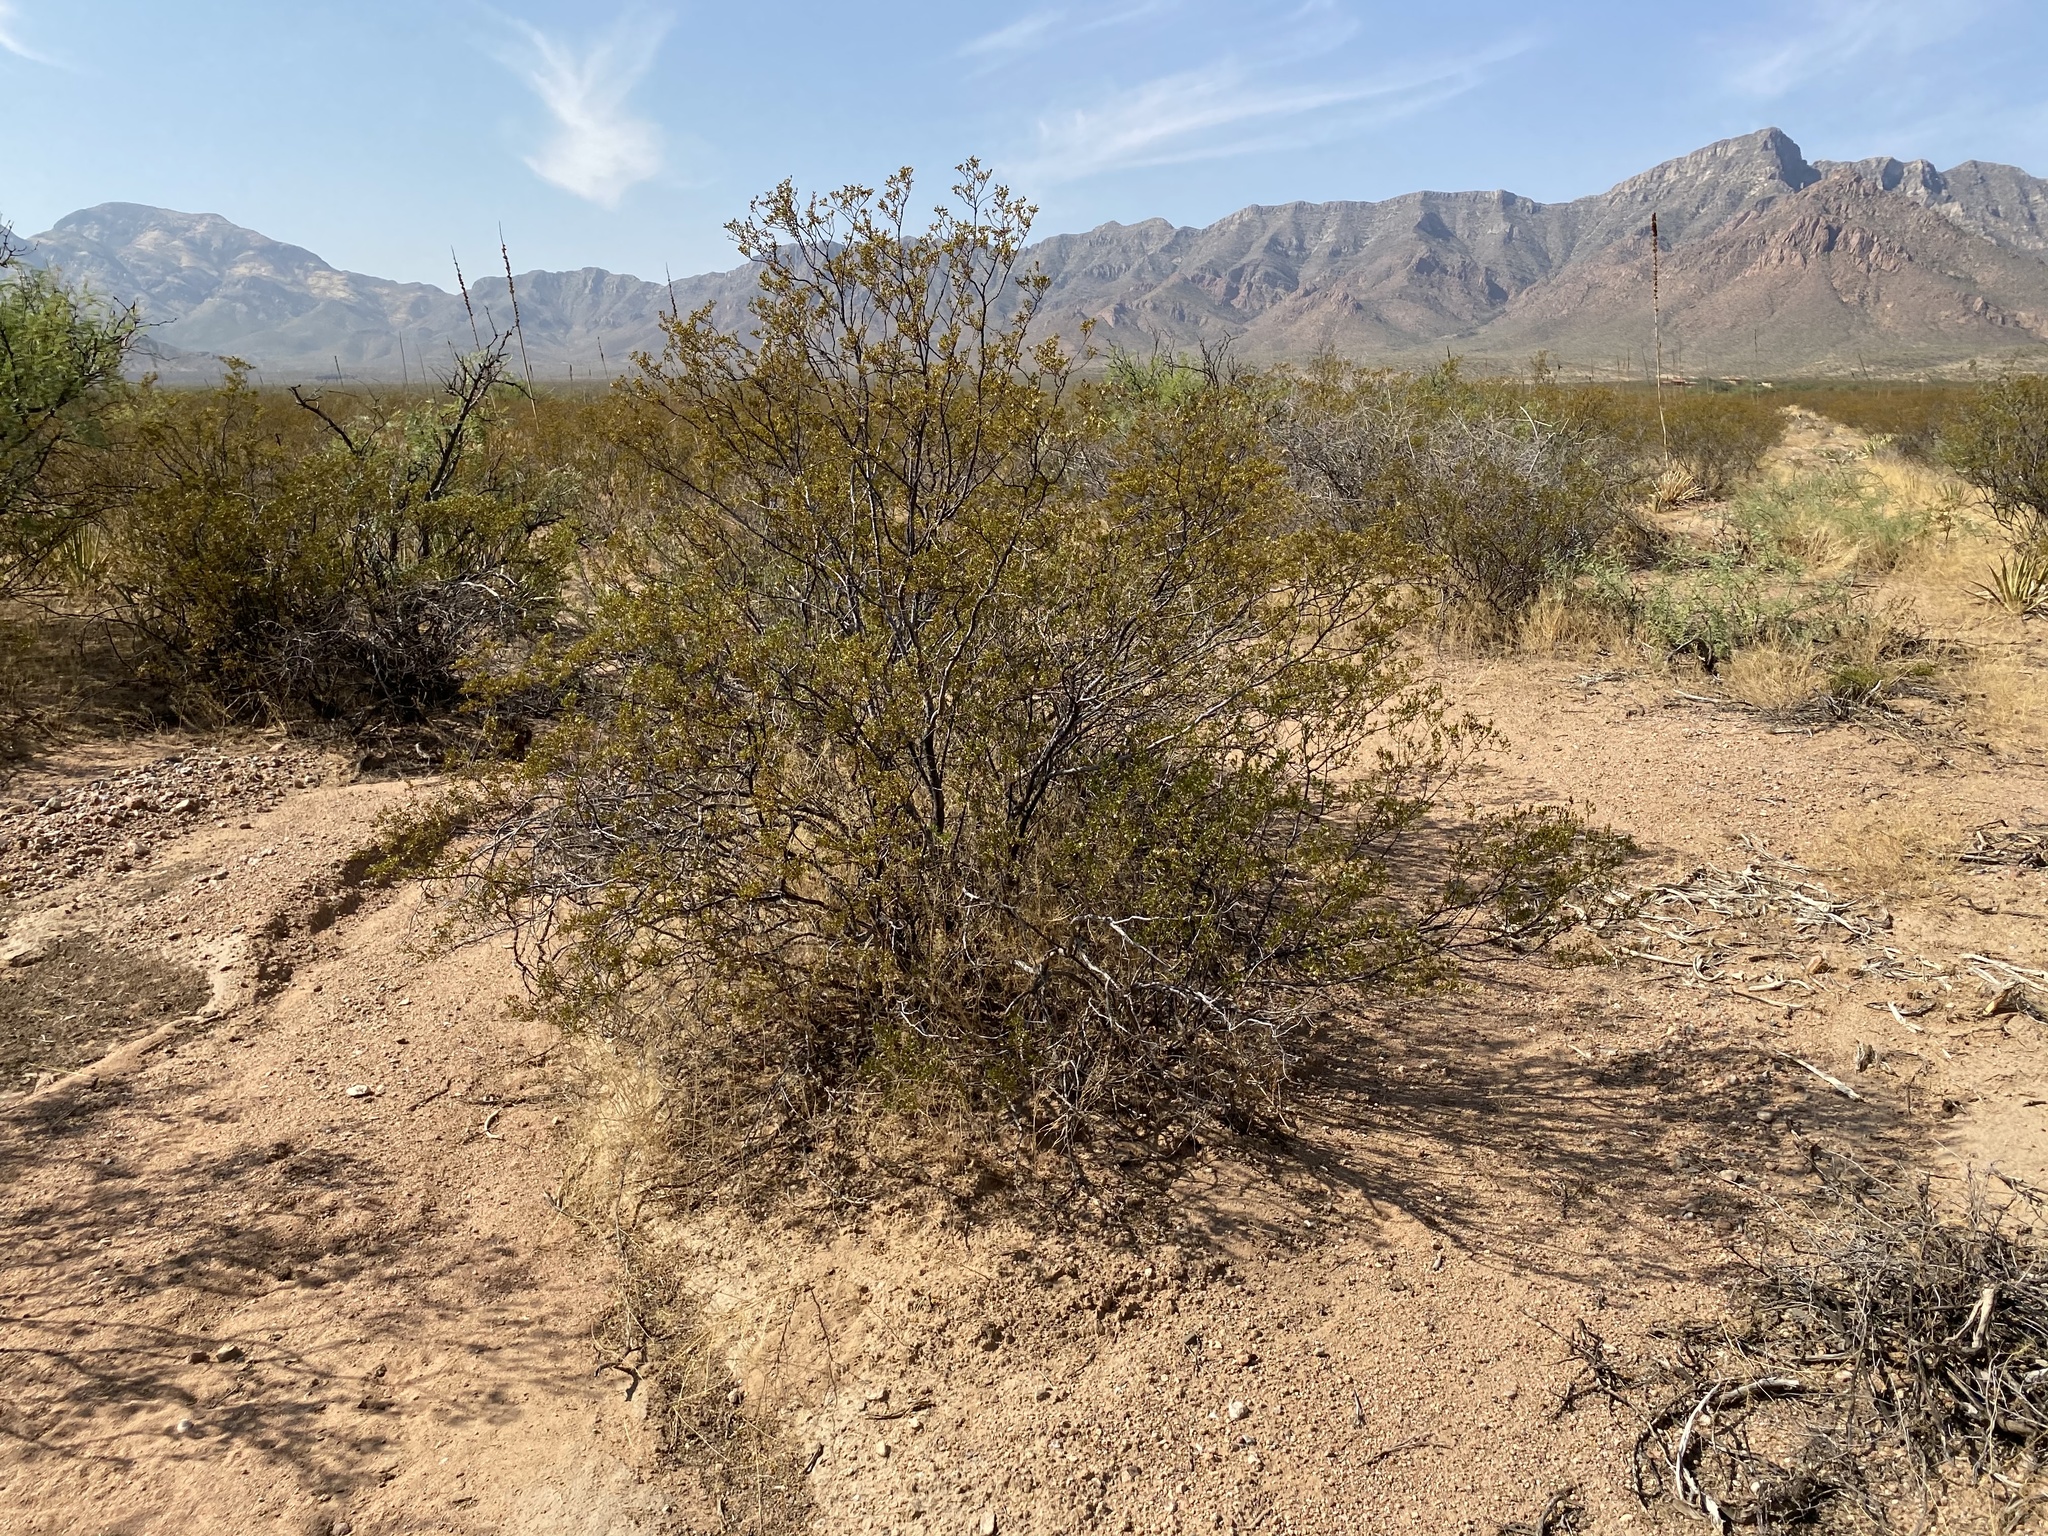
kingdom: Plantae
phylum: Tracheophyta
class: Magnoliopsida
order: Zygophyllales
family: Zygophyllaceae
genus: Larrea
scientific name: Larrea tridentata
